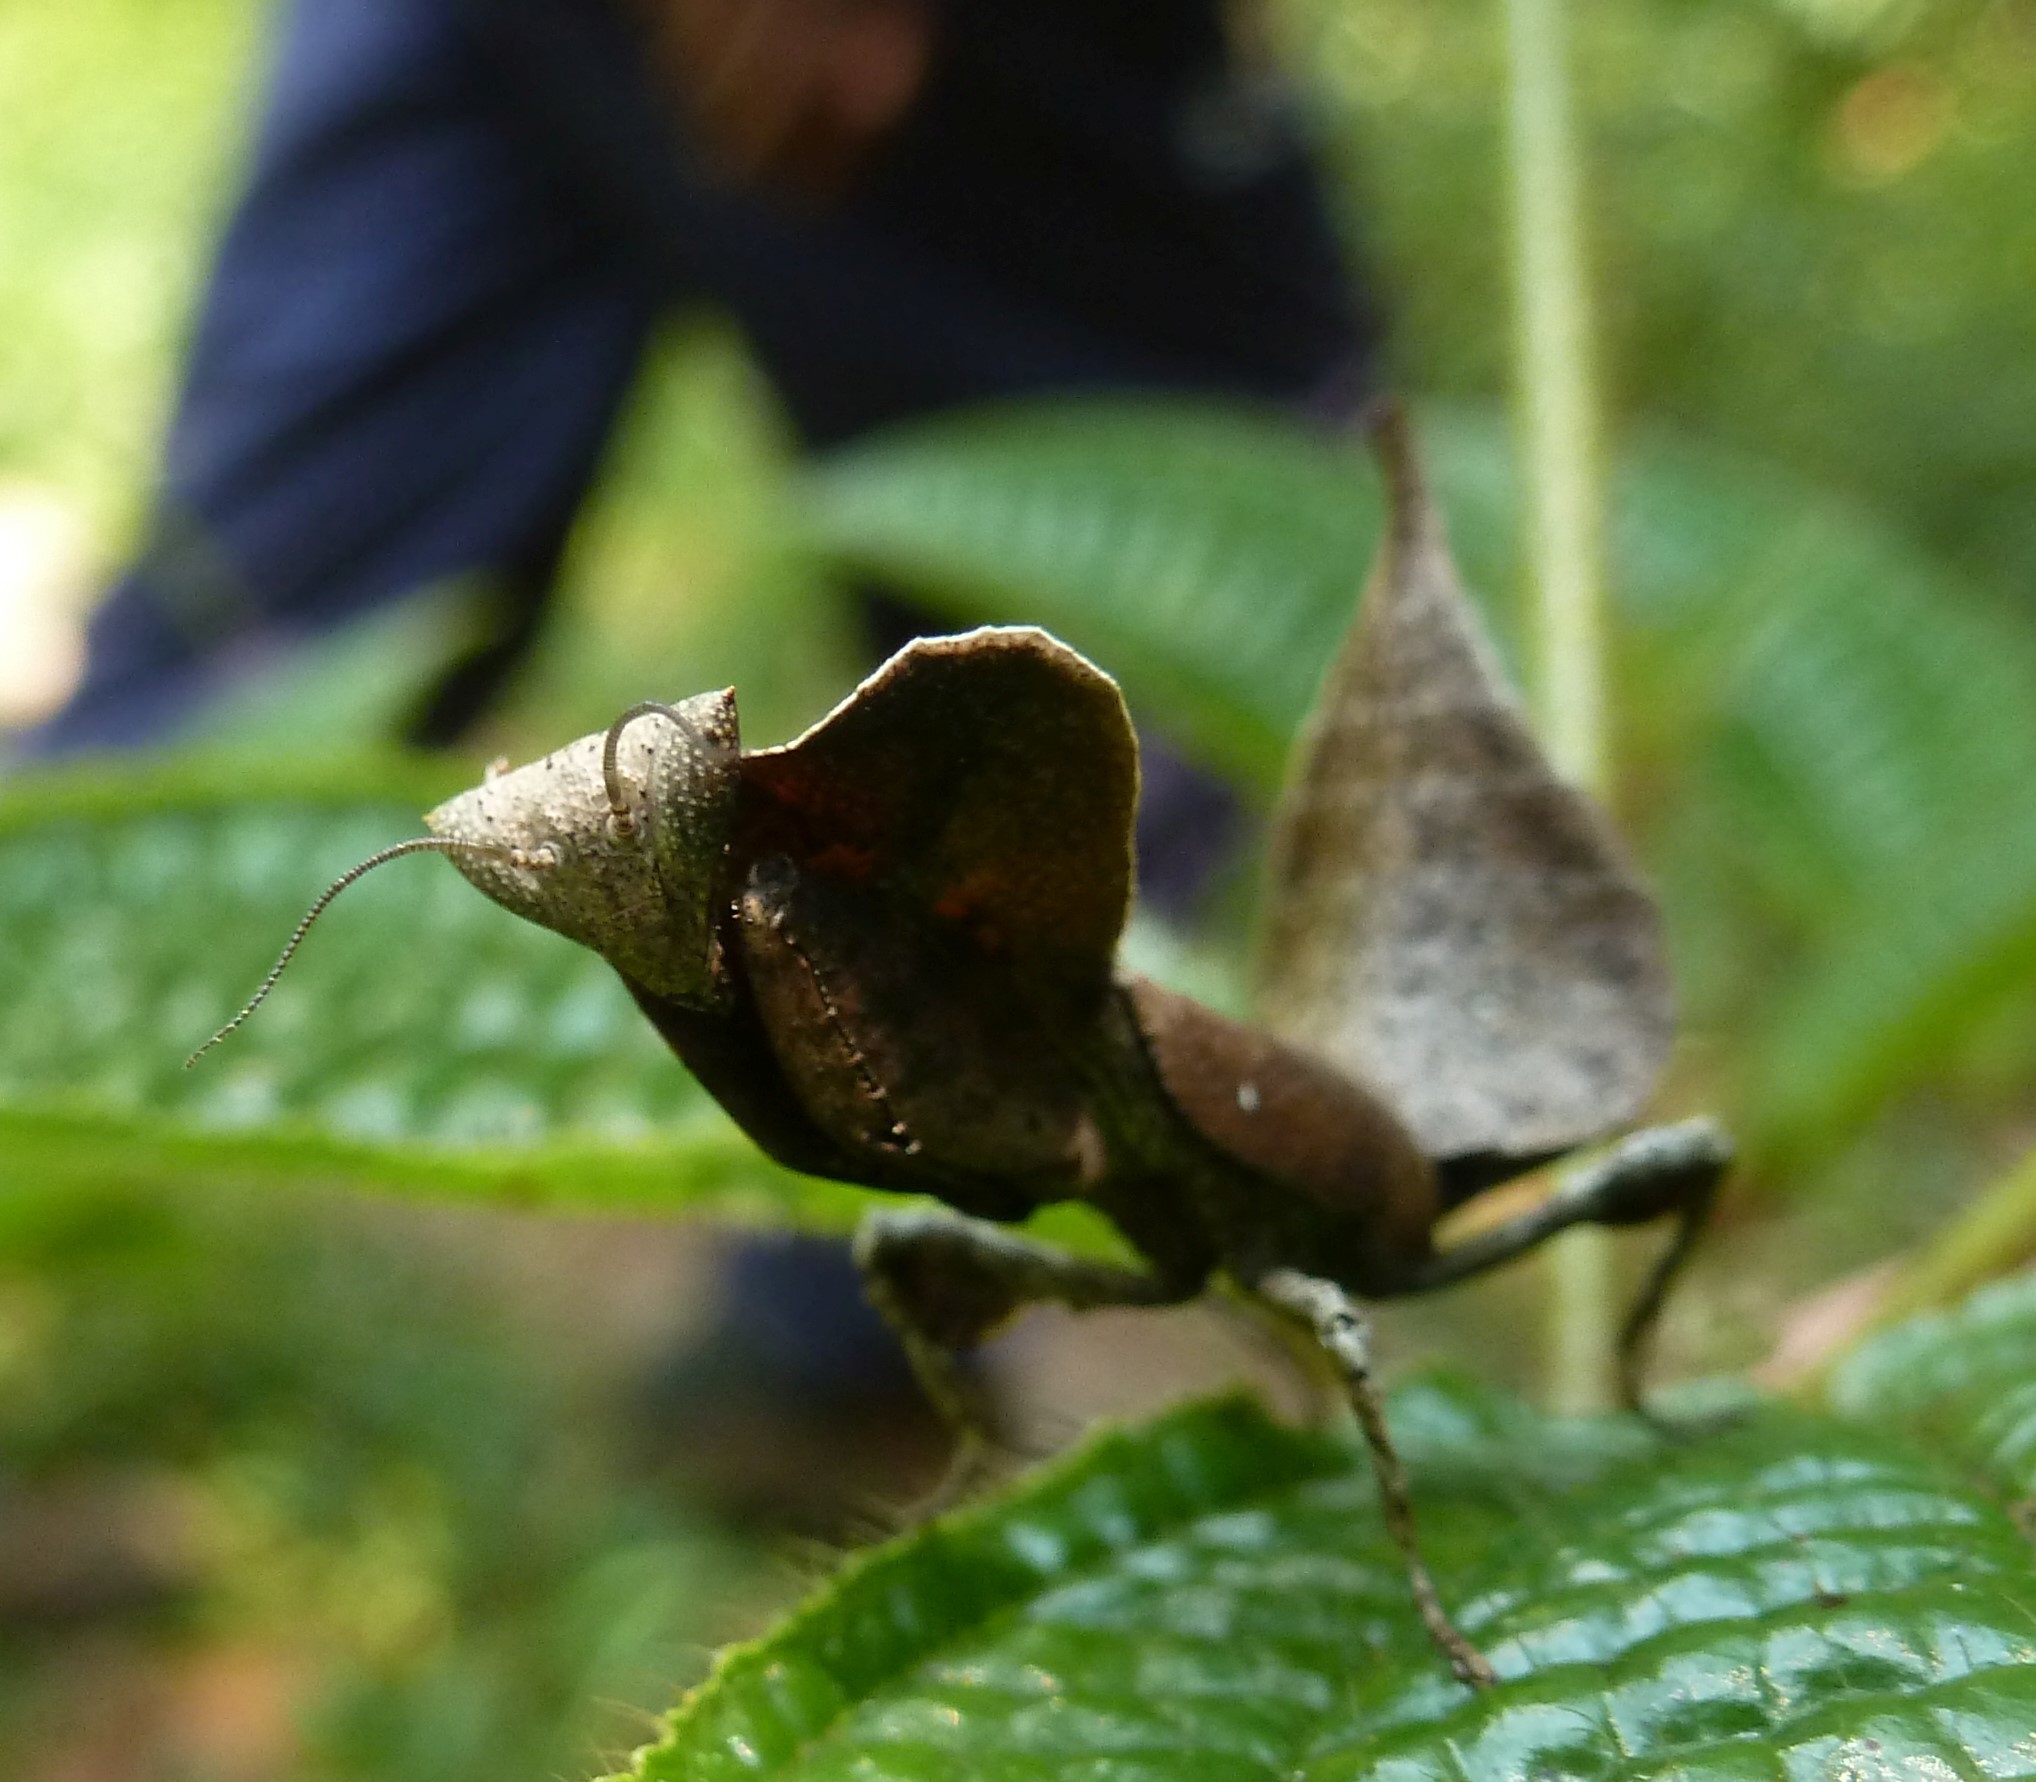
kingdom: Animalia
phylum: Arthropoda
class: Insecta
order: Mantodea
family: Majangidae
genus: Brancsikia
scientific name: Brancsikia aeroplana
